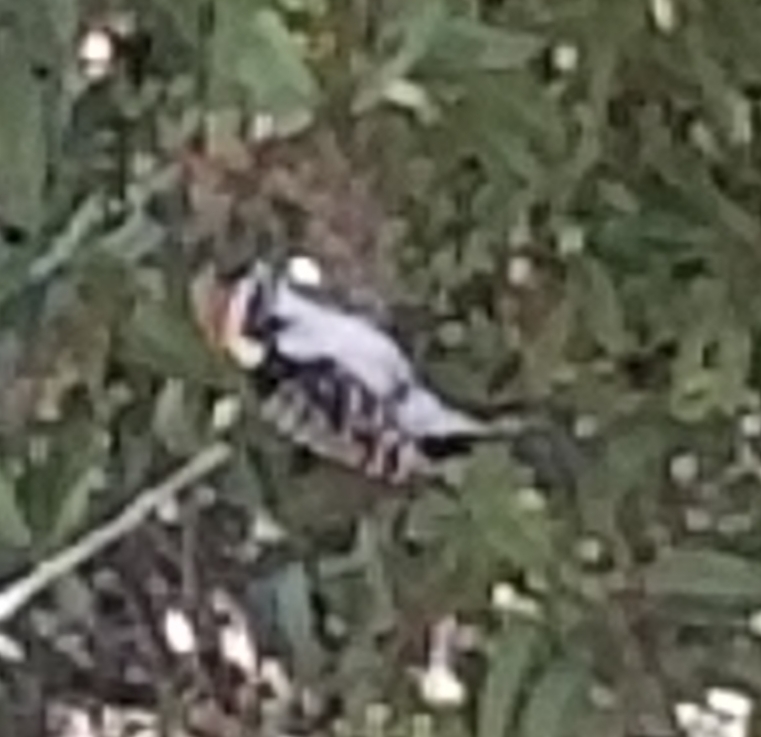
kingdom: Animalia
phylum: Chordata
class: Aves
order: Piciformes
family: Picidae
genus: Dryobates
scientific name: Dryobates nuttallii
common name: Nuttall's woodpecker
